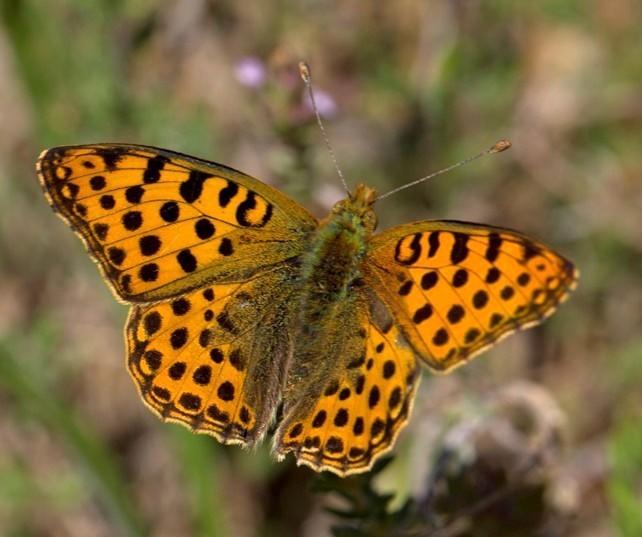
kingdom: Animalia
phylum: Arthropoda
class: Insecta
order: Lepidoptera
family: Nymphalidae
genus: Issoria
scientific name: Issoria lathonia
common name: Queen of spain fritillary
